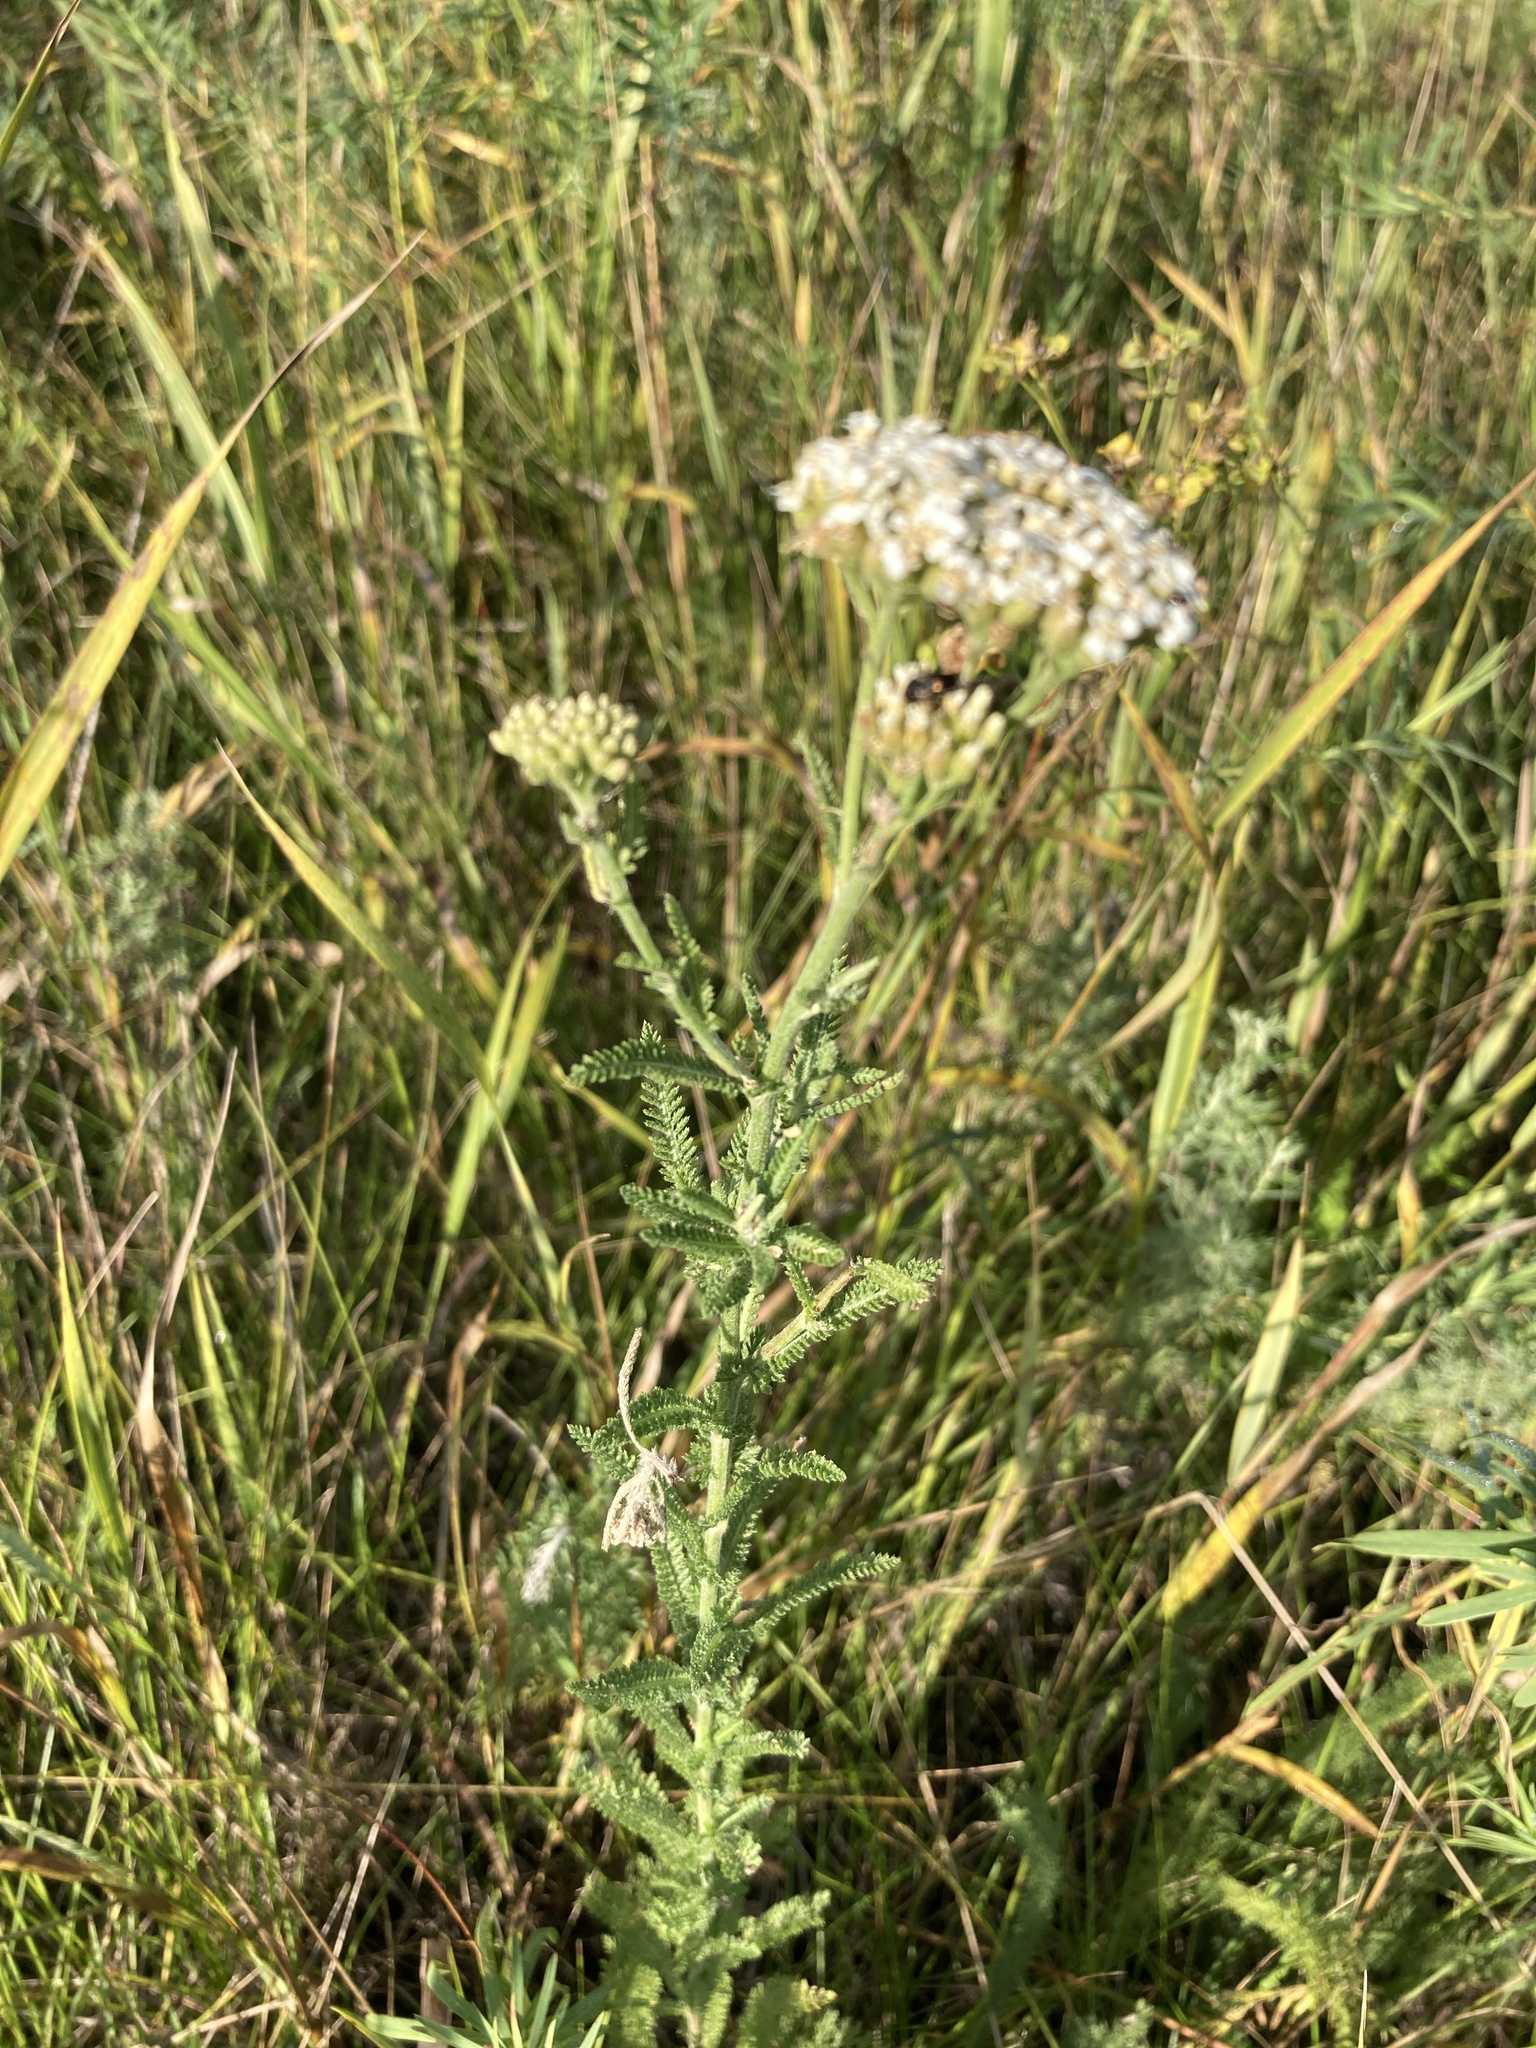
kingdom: Plantae
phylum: Tracheophyta
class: Magnoliopsida
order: Asterales
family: Asteraceae
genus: Achillea
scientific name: Achillea setacea
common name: Bristly yarrow
